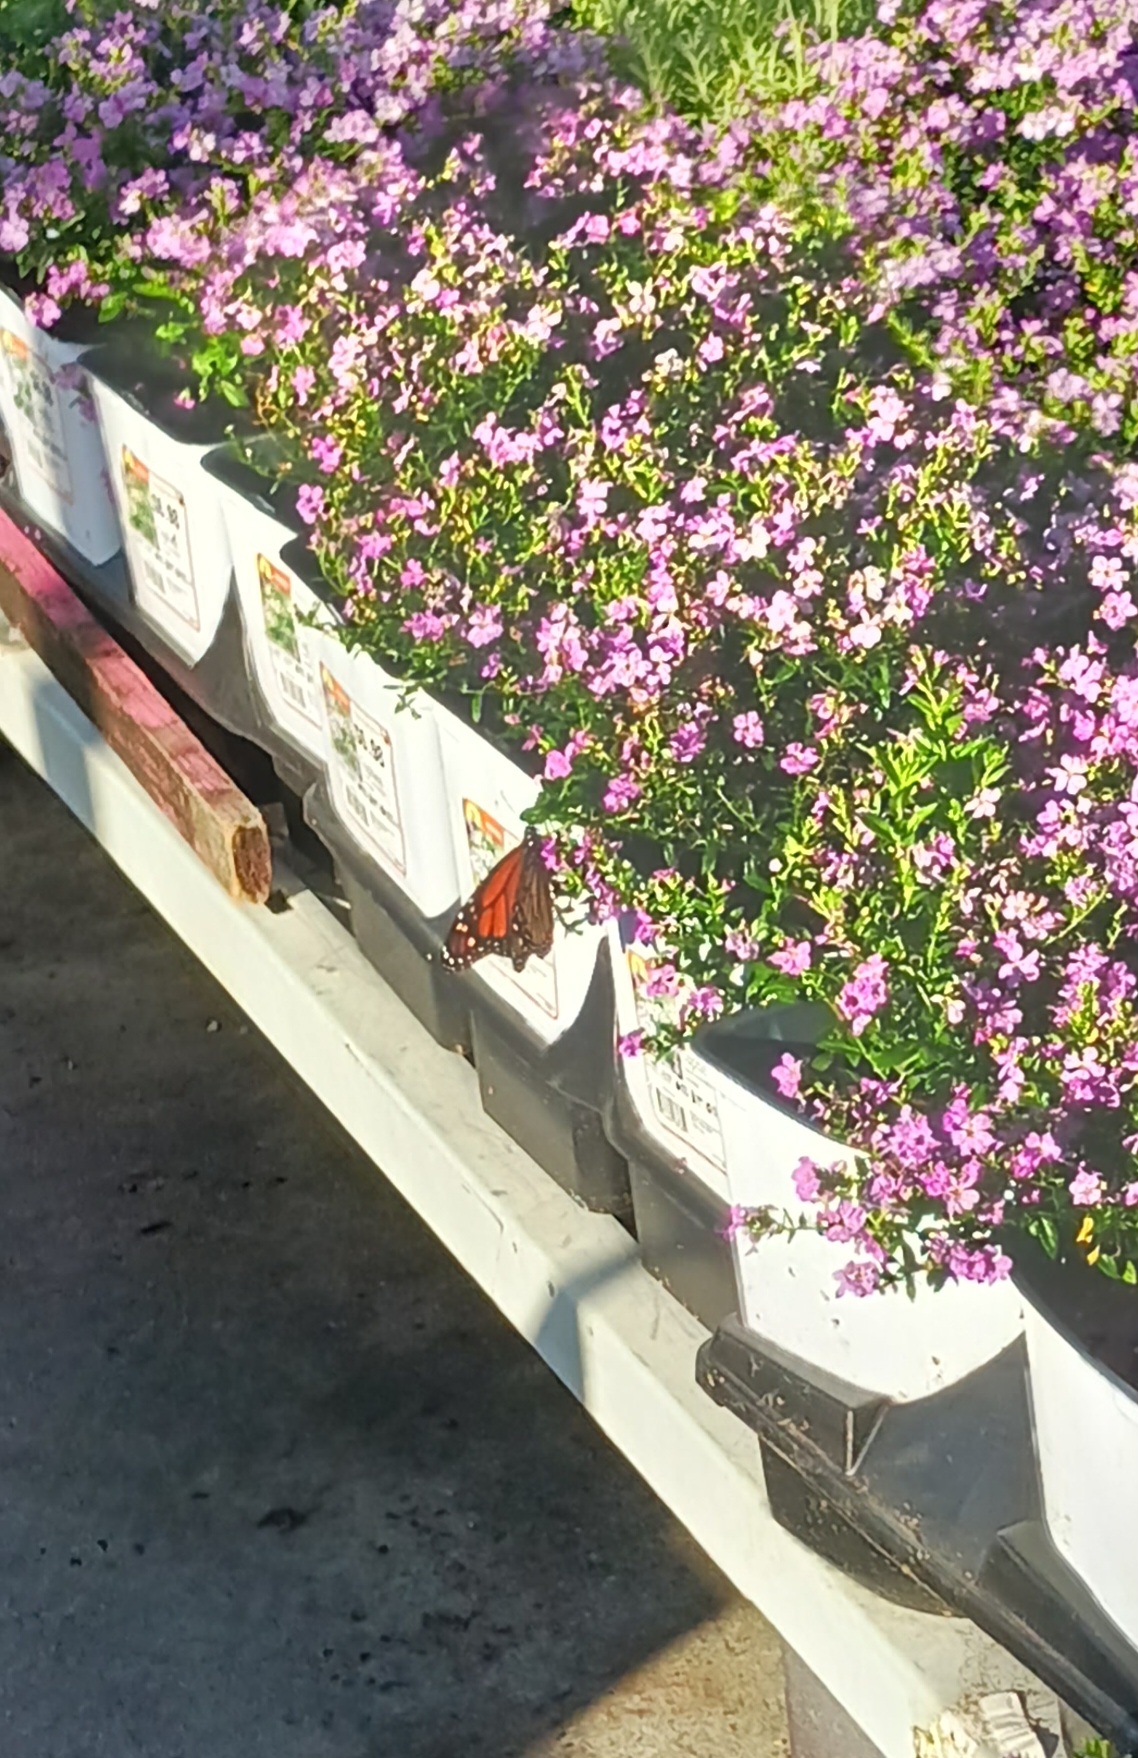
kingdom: Animalia
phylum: Arthropoda
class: Insecta
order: Lepidoptera
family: Nymphalidae
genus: Danaus
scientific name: Danaus plexippus
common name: Monarch
